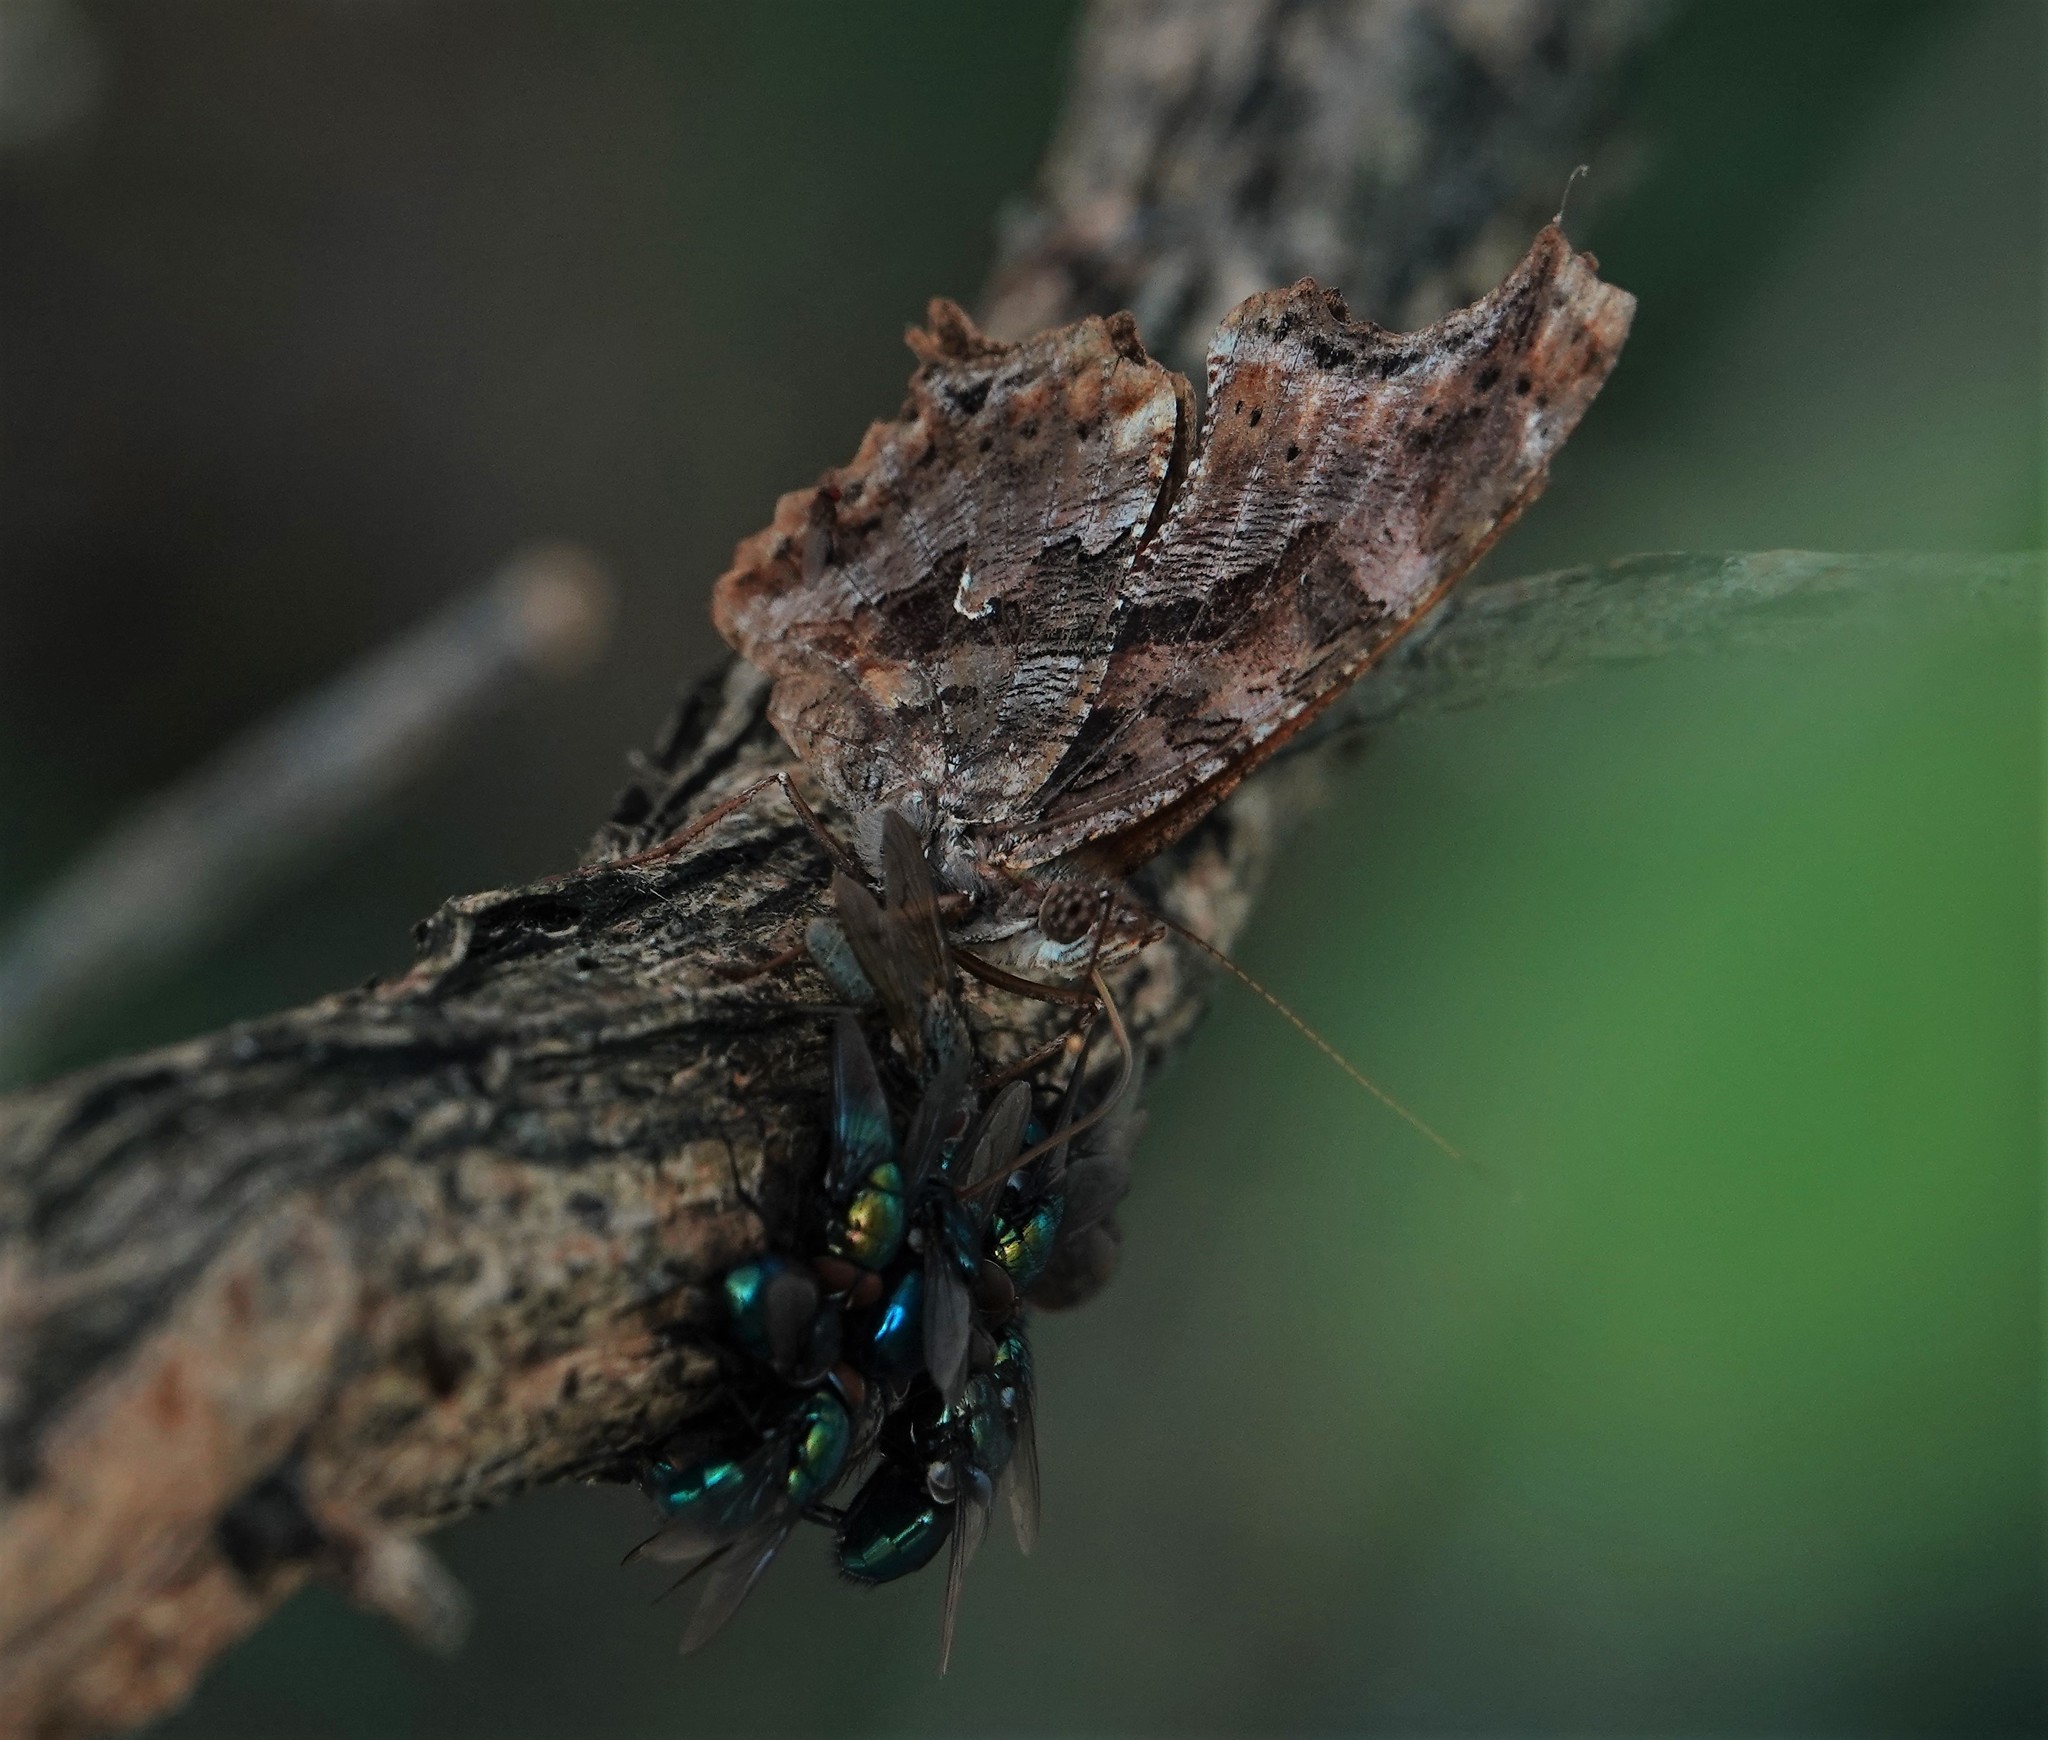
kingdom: Animalia
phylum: Arthropoda
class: Insecta
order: Lepidoptera
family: Nymphalidae
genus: Polygonia
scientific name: Polygonia comma
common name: Eastern comma
